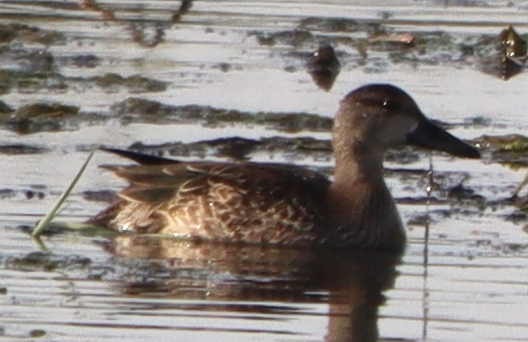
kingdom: Animalia
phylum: Chordata
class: Aves
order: Anseriformes
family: Anatidae
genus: Spatula
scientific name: Spatula discors
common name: Blue-winged teal
